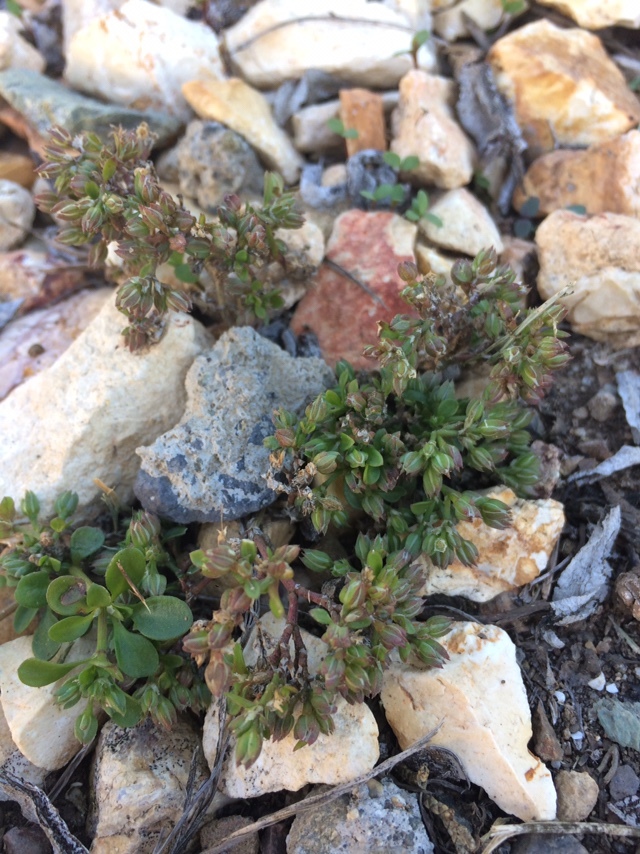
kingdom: Plantae
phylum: Tracheophyta
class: Magnoliopsida
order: Caryophyllales
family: Caryophyllaceae
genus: Polycarpon
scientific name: Polycarpon tetraphyllum
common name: Four-leaved all-seed
